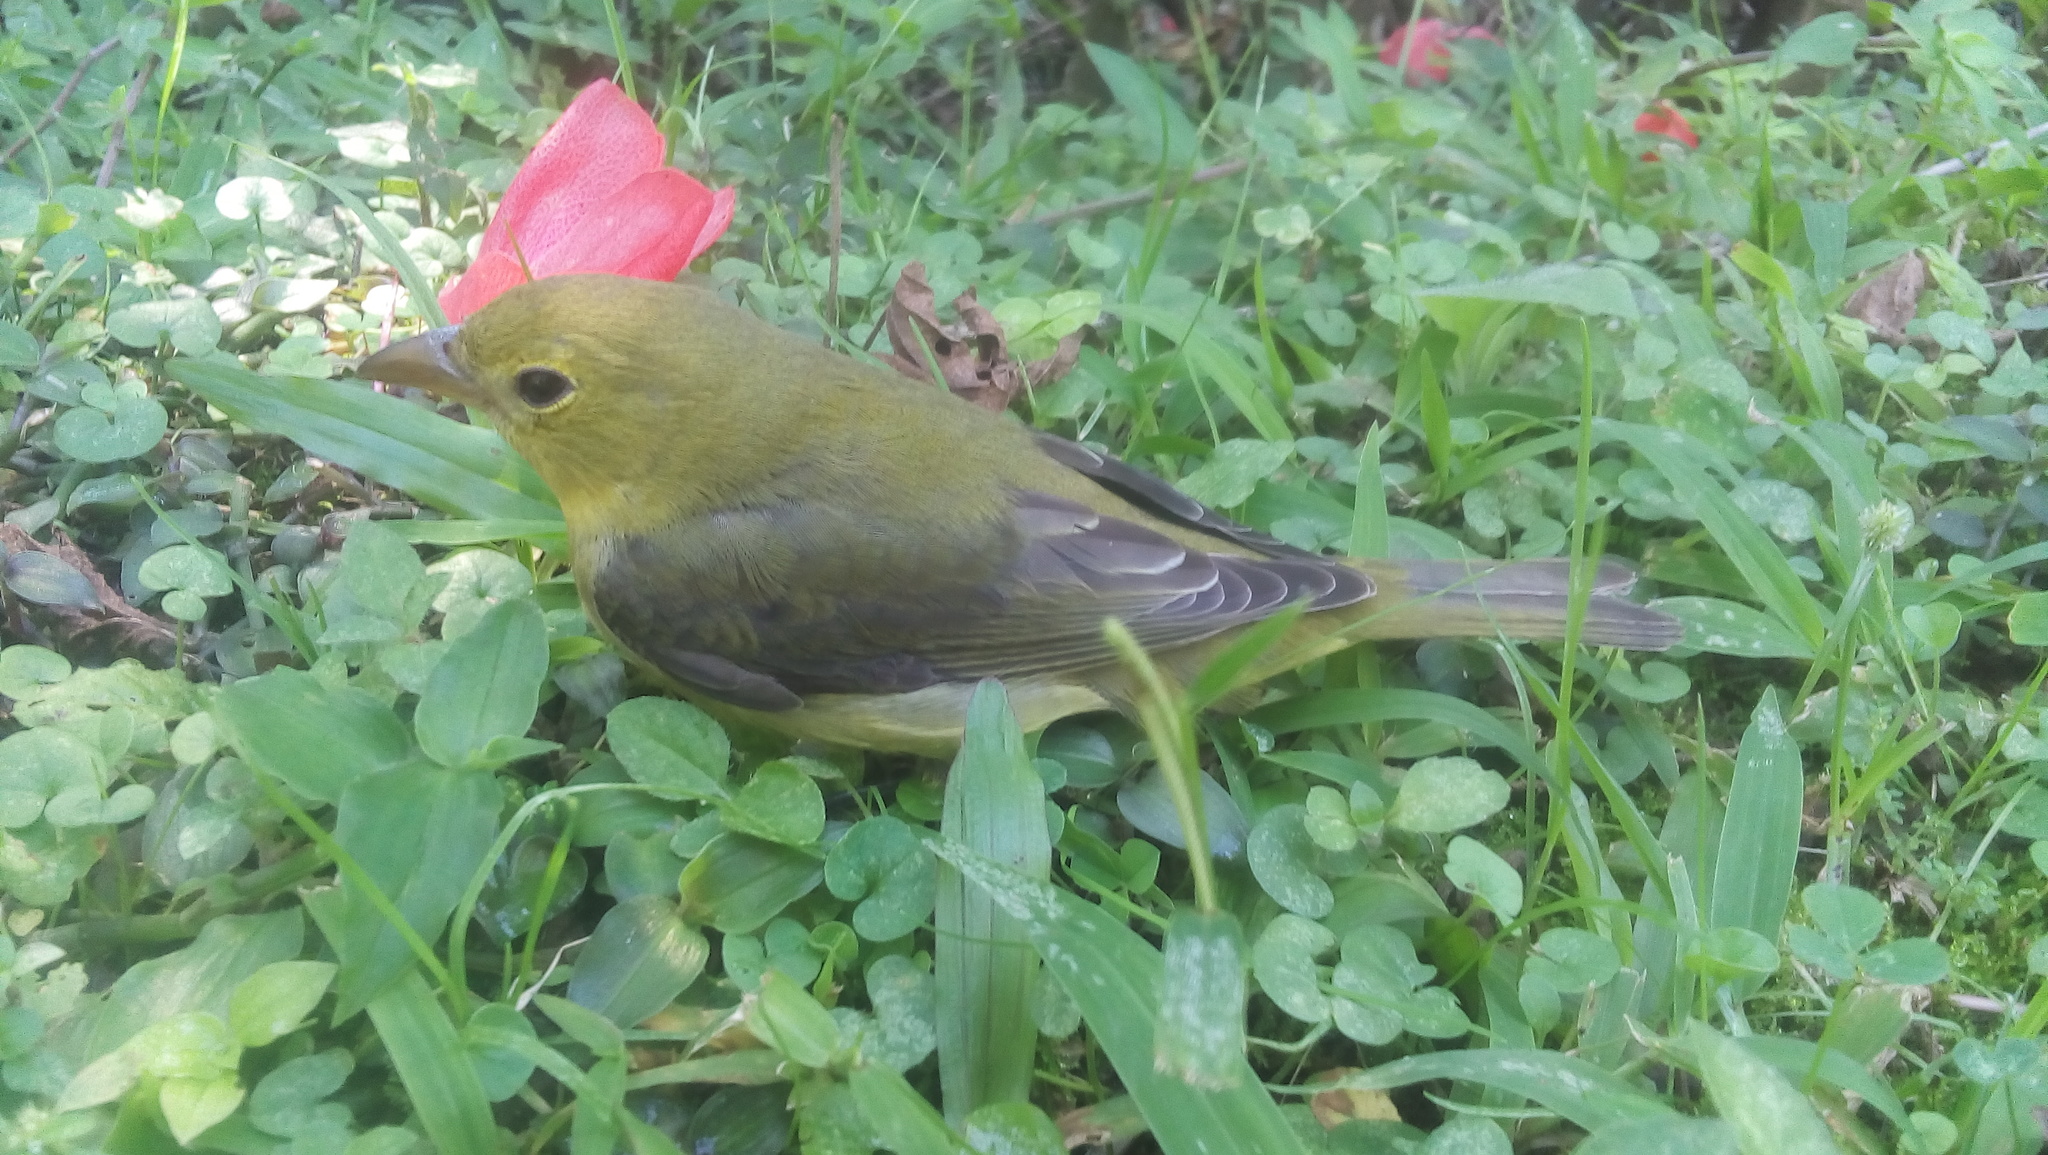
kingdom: Animalia
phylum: Chordata
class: Aves
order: Passeriformes
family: Cardinalidae
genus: Piranga
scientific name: Piranga olivacea
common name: Scarlet tanager
